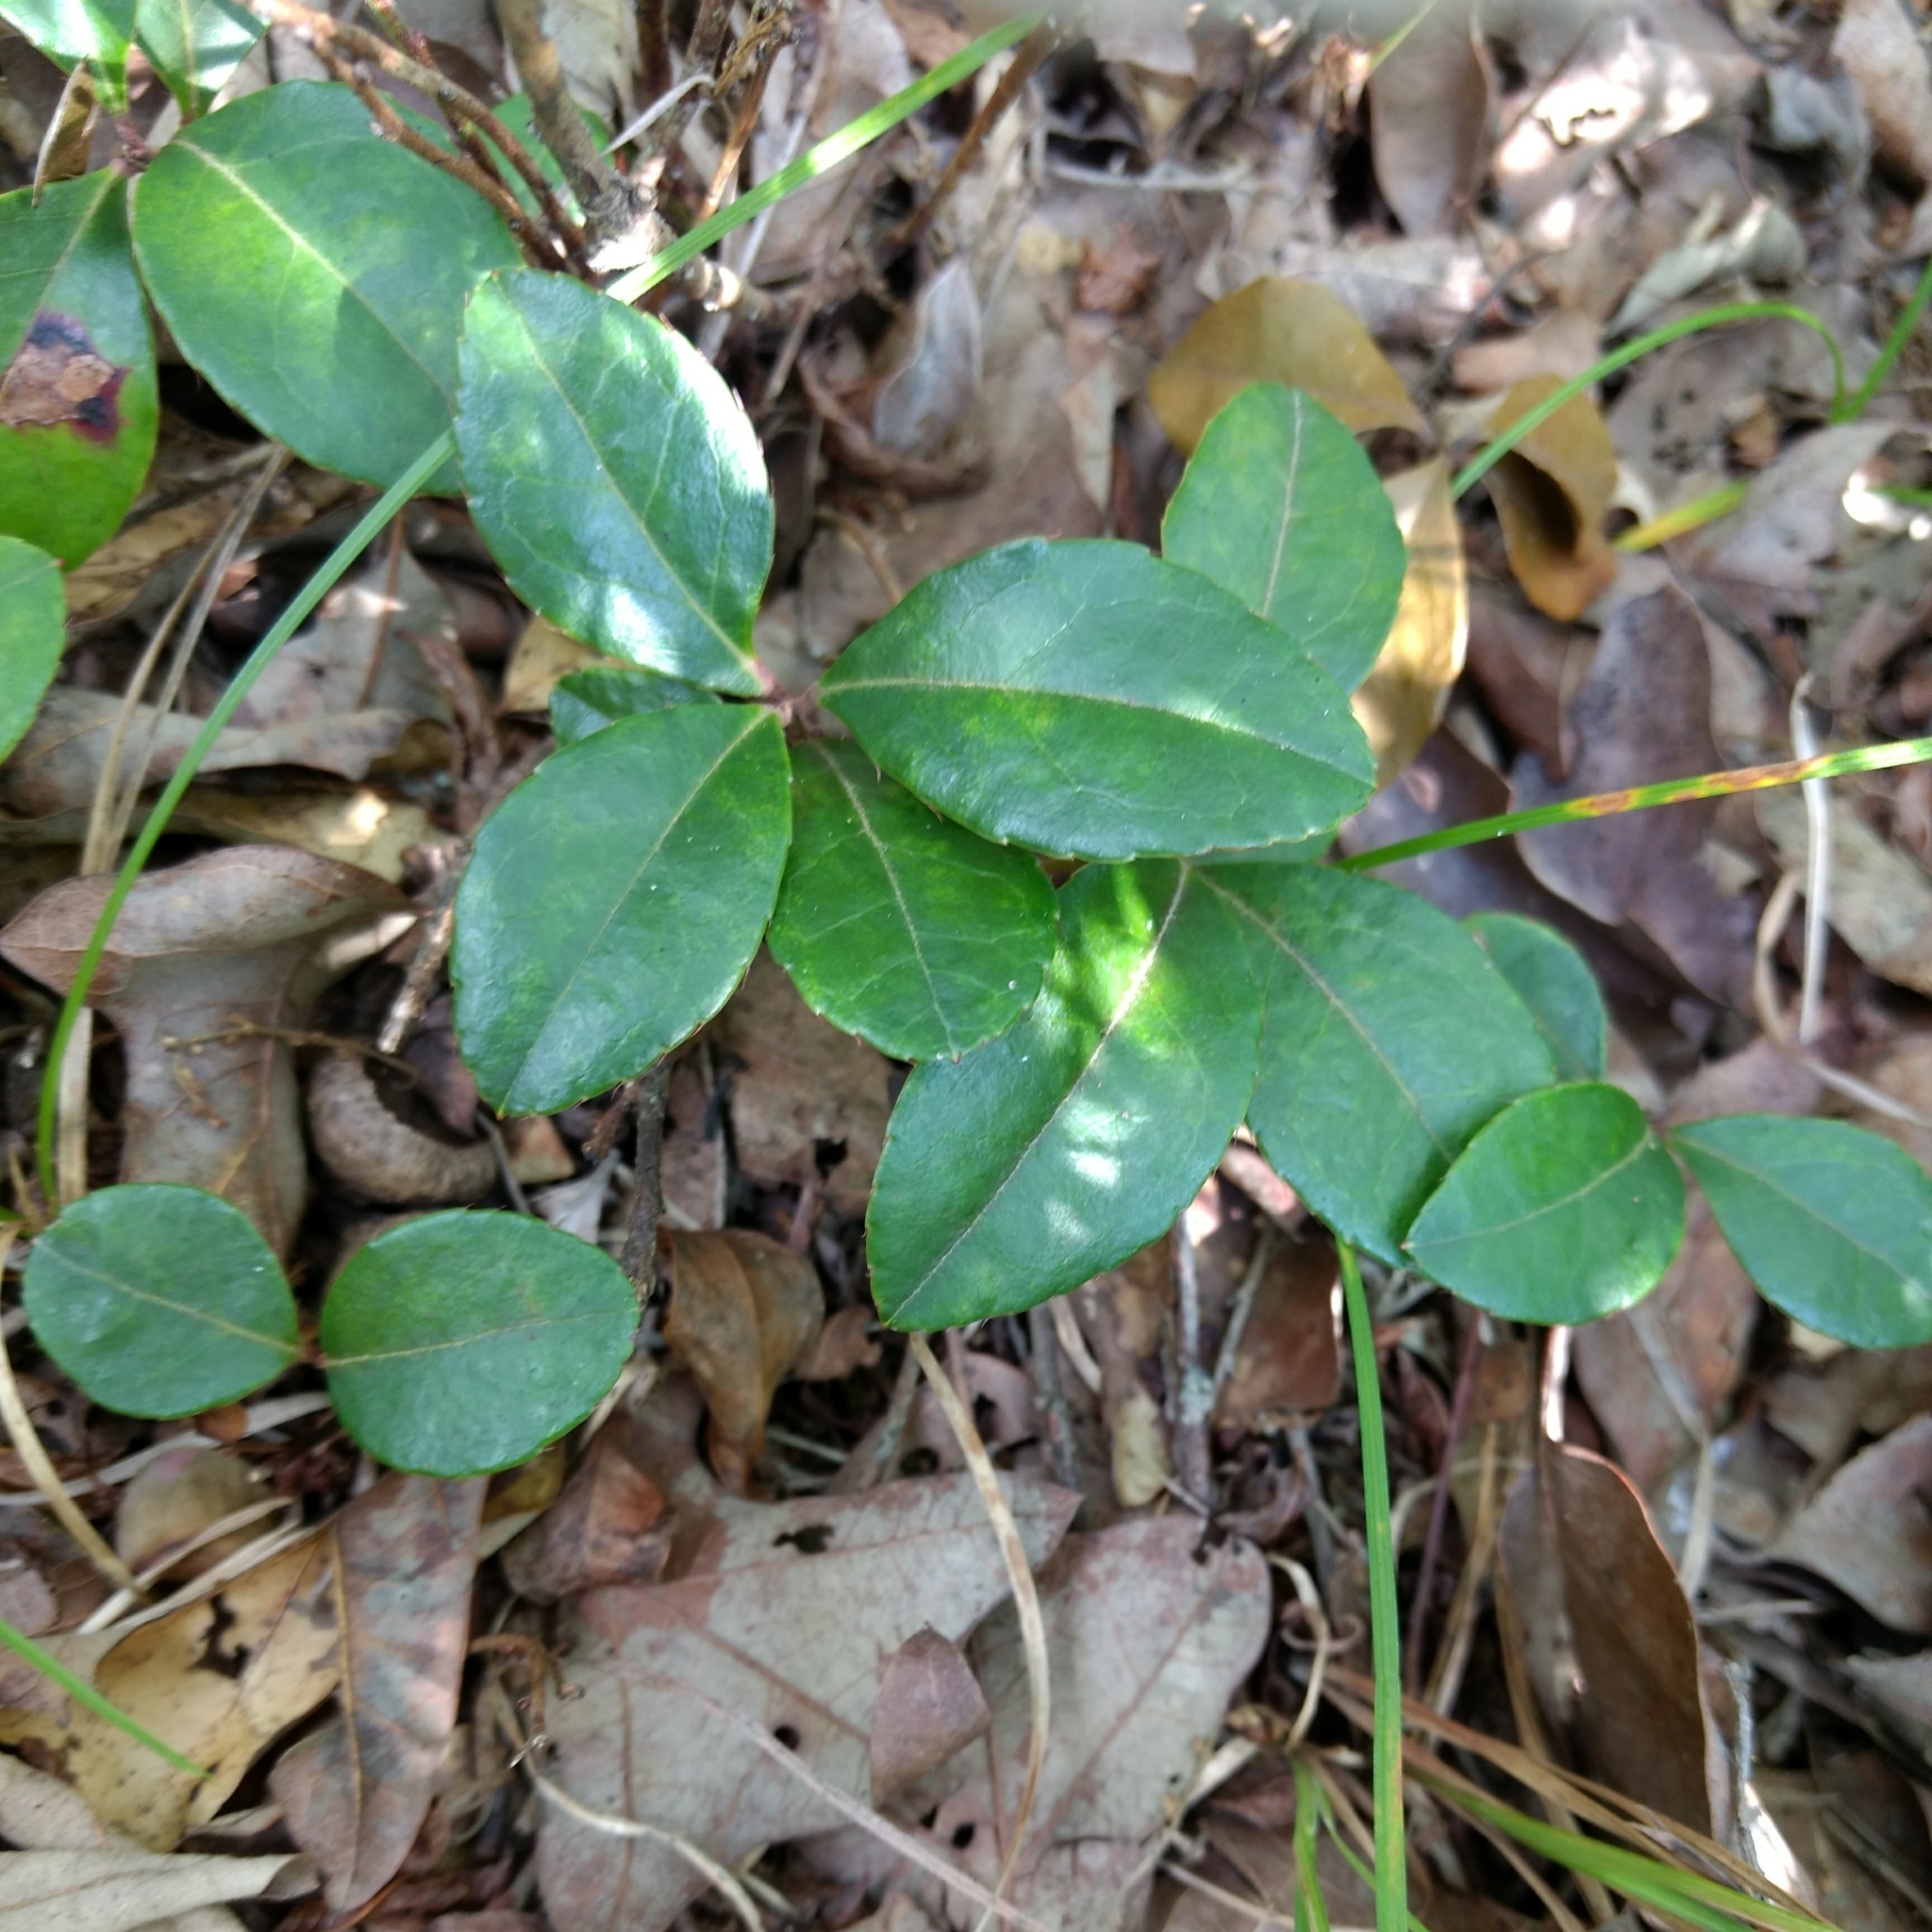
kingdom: Plantae
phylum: Tracheophyta
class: Magnoliopsida
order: Ericales
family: Ericaceae
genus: Gaultheria
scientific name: Gaultheria procumbens
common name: Checkerberry
